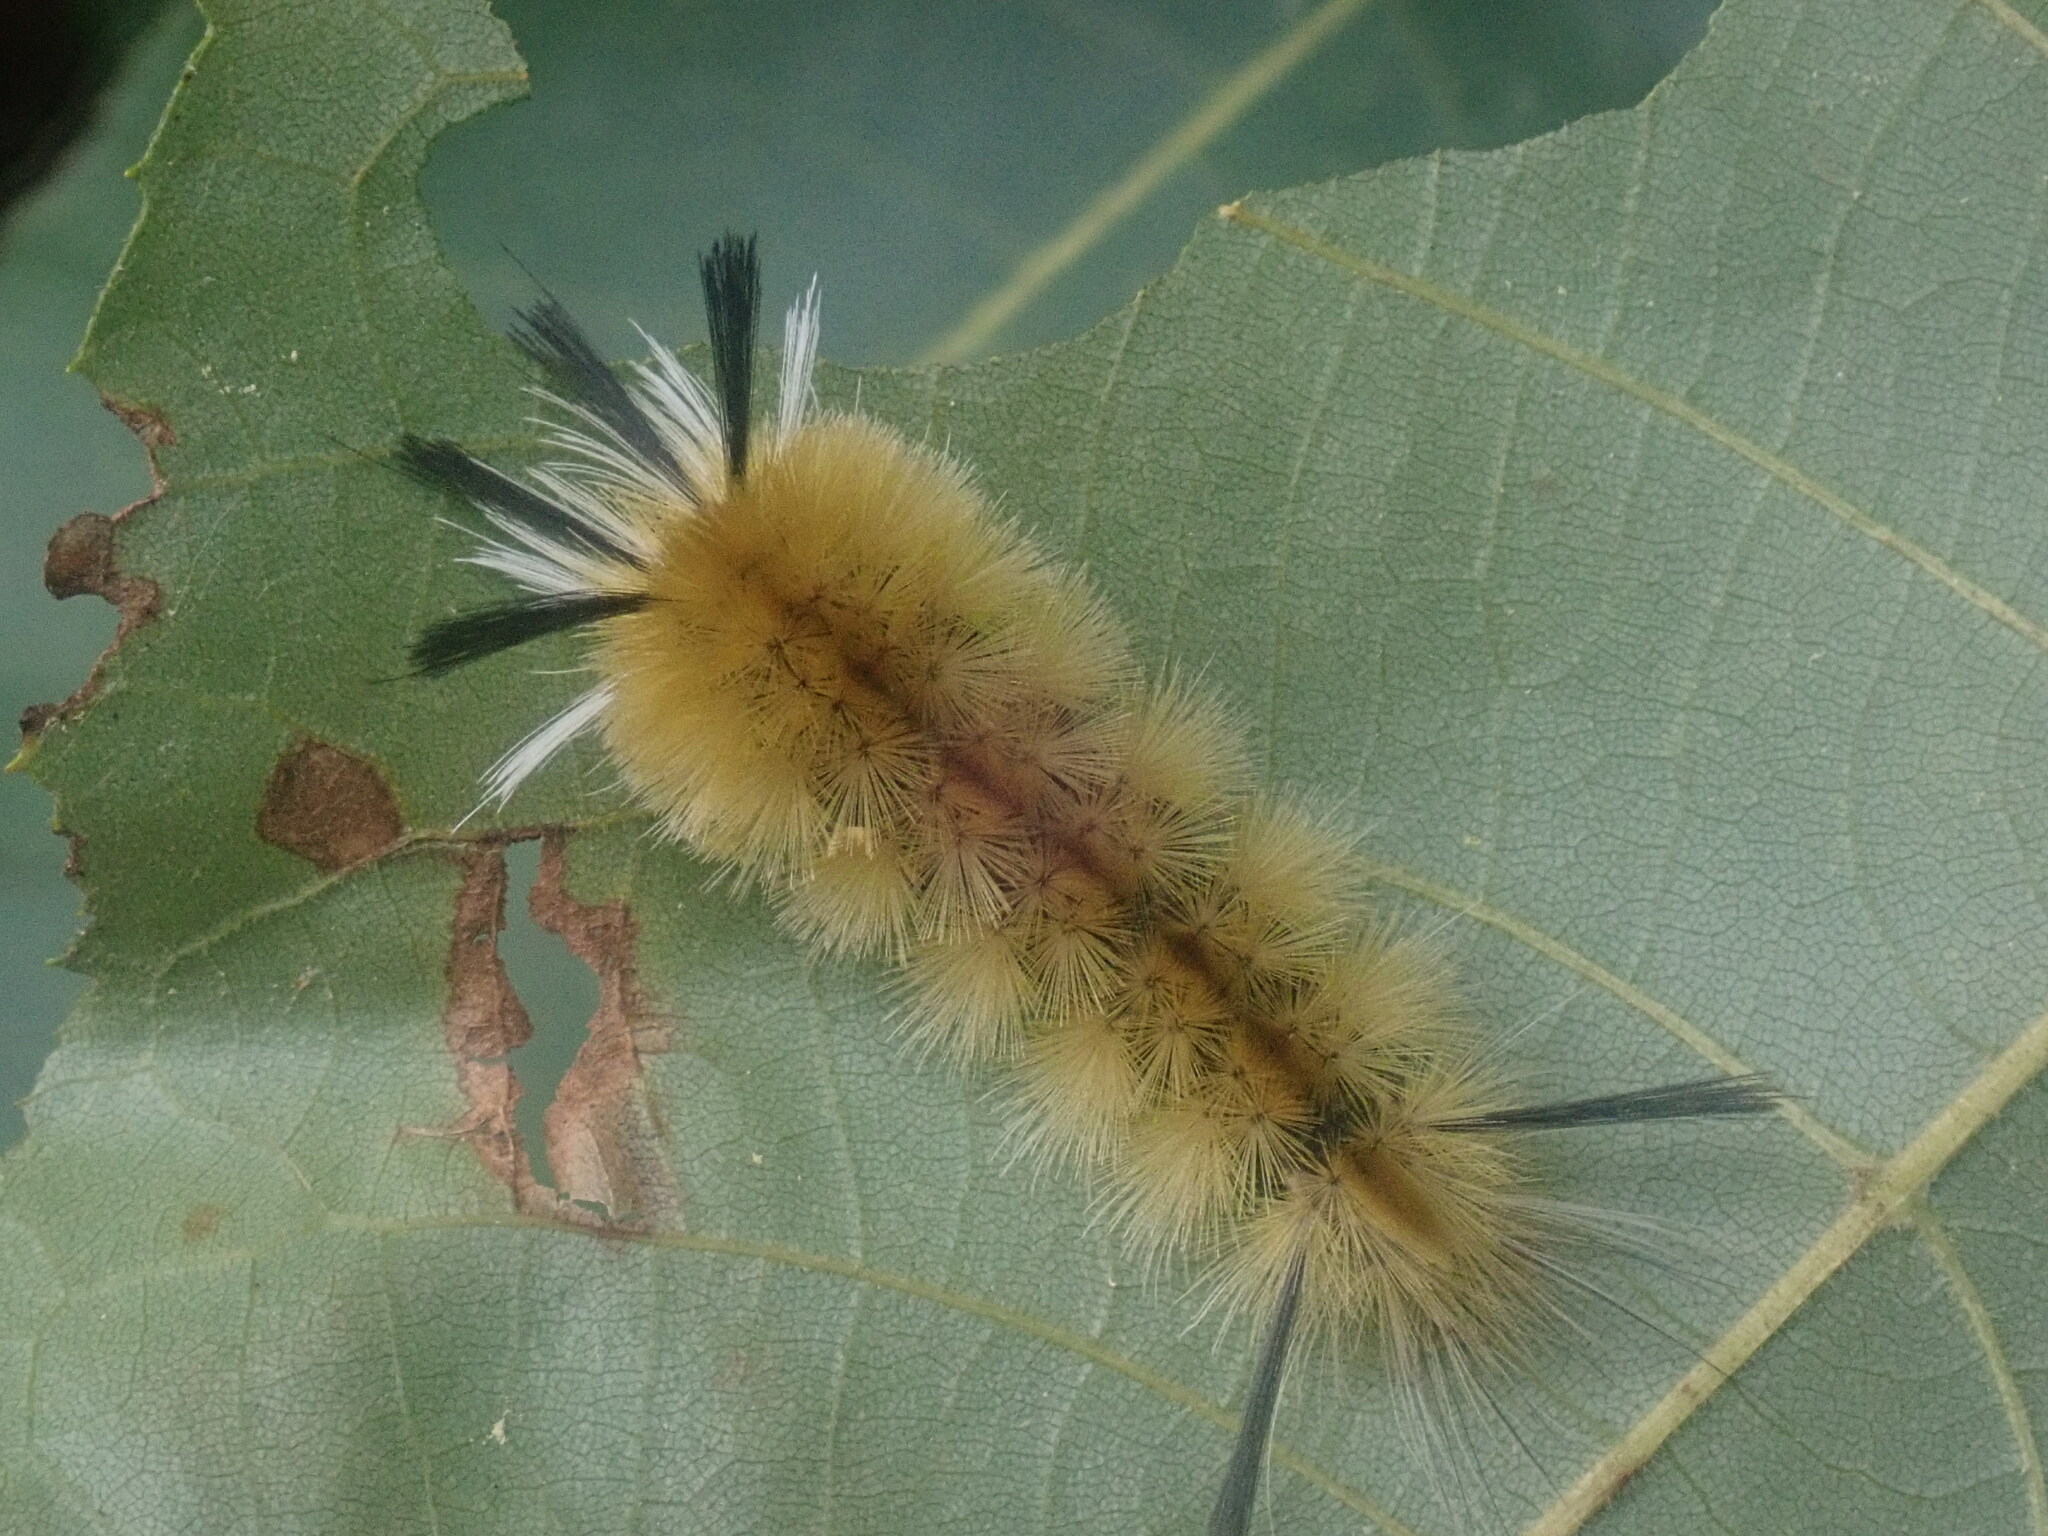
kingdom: Animalia
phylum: Arthropoda
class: Insecta
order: Lepidoptera
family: Erebidae
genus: Halysidota
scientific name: Halysidota tessellaris
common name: Banded tussock moth
